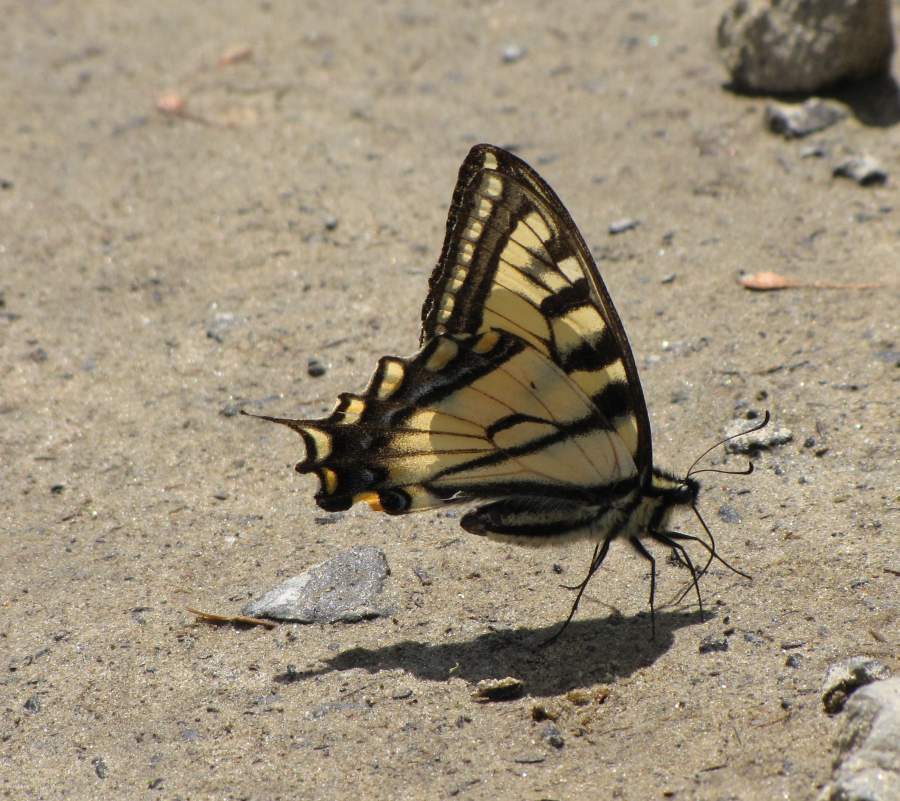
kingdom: Animalia
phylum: Arthropoda
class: Insecta
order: Lepidoptera
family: Papilionidae
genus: Papilio
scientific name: Papilio canadensis
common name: Canadian tiger swallowtail
